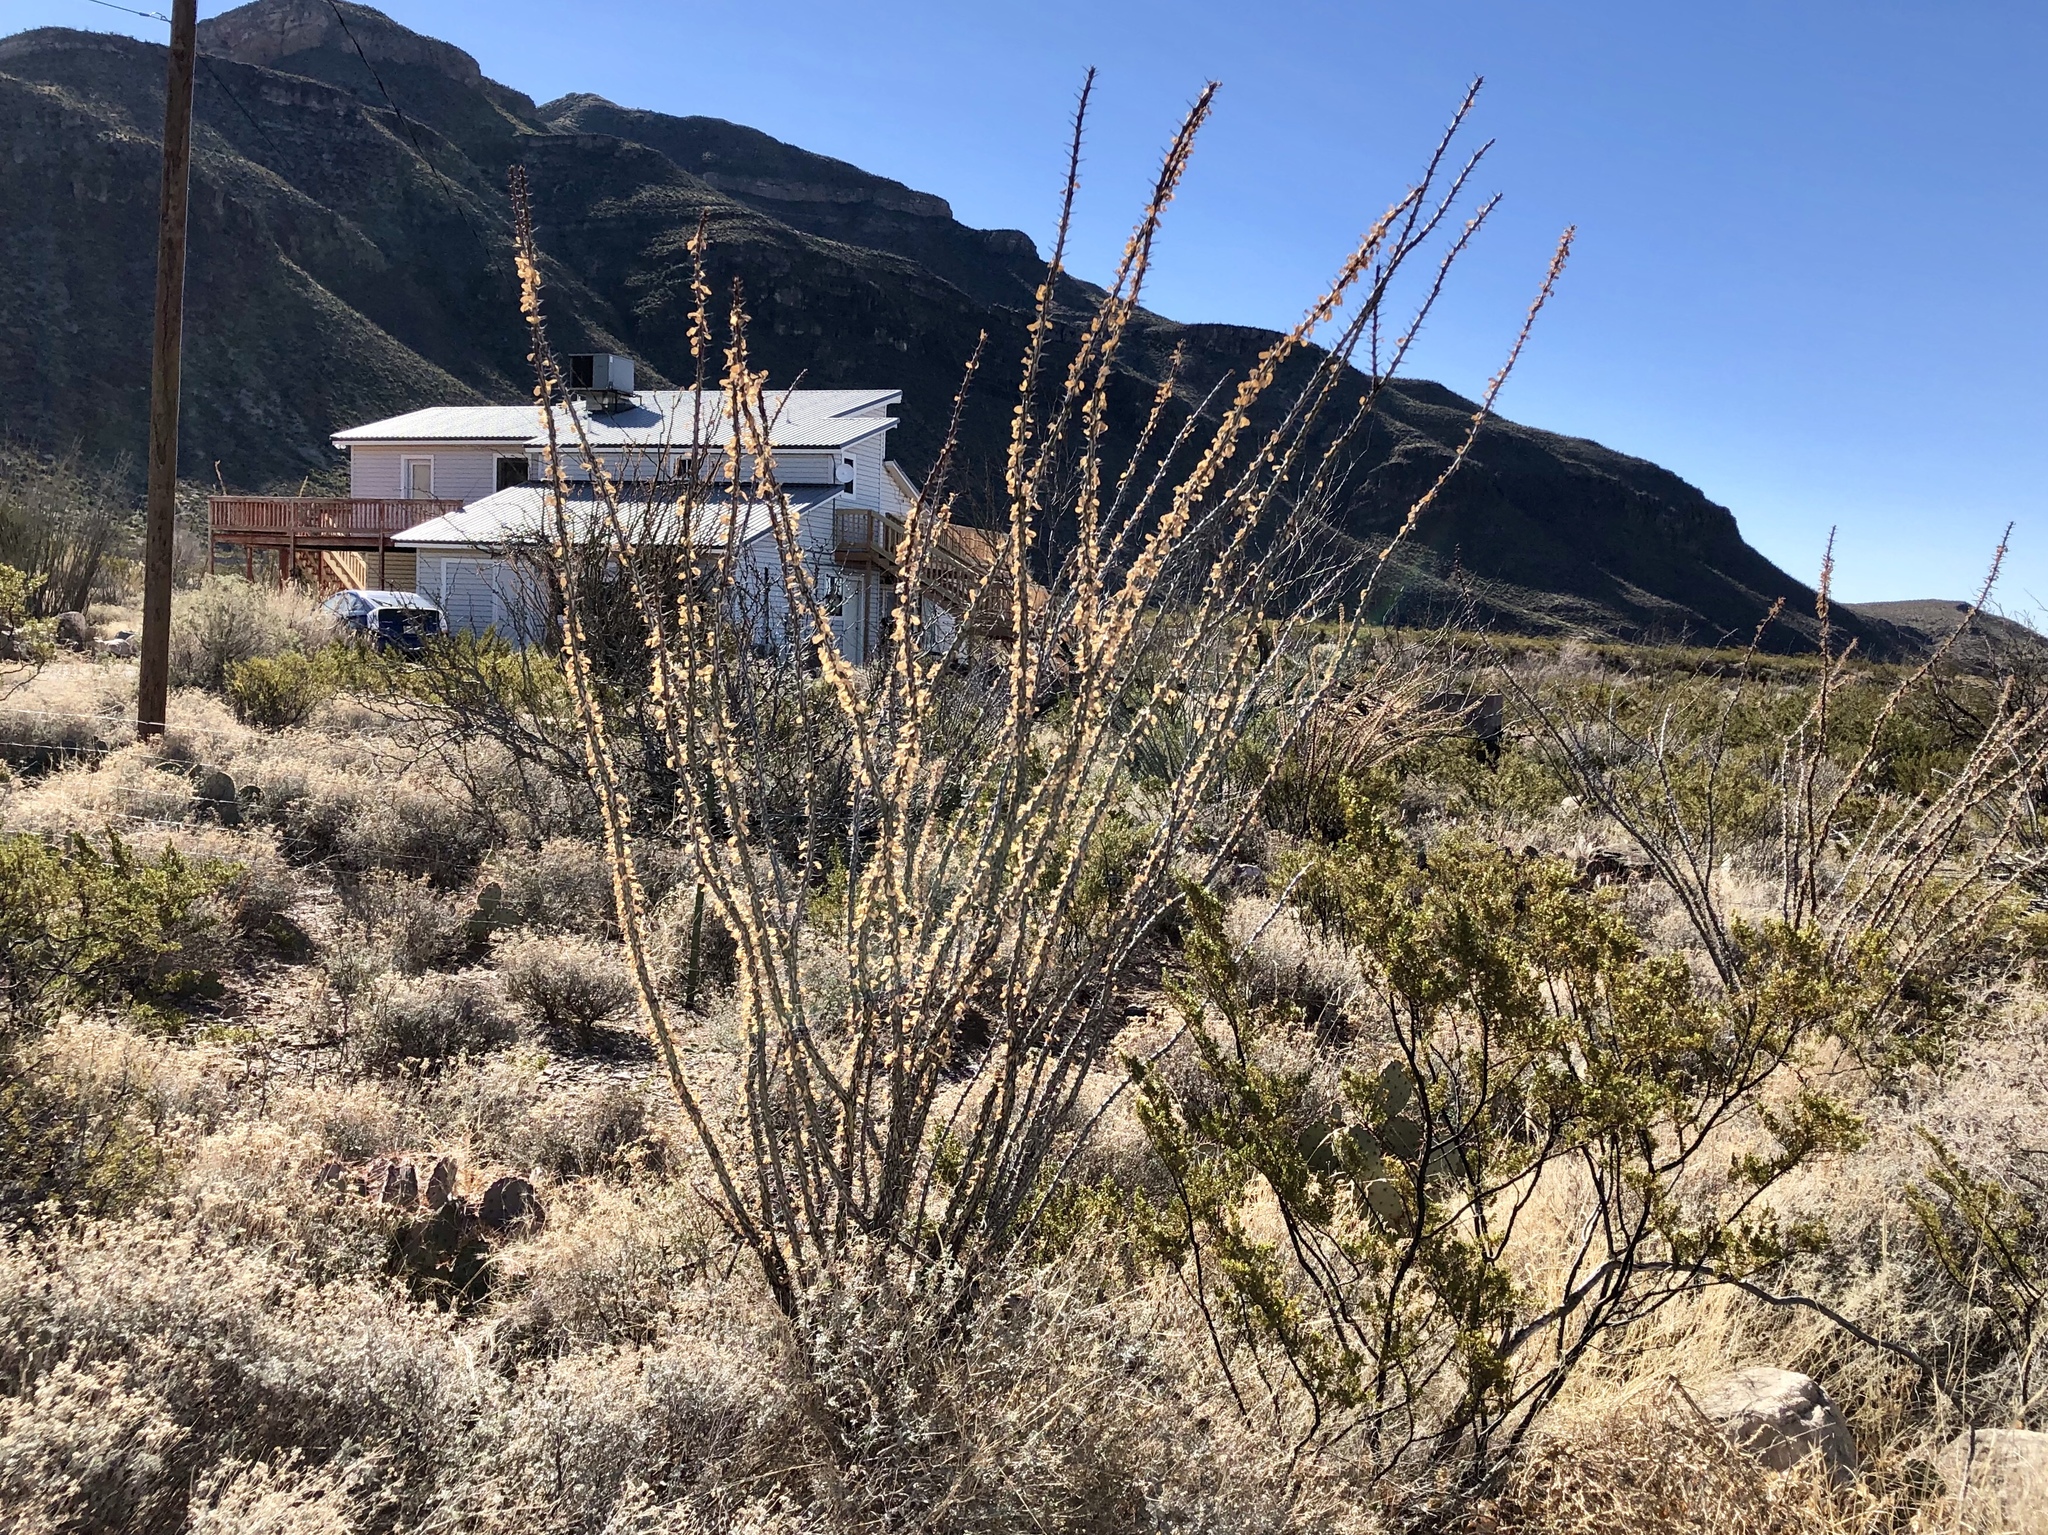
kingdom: Plantae
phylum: Tracheophyta
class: Magnoliopsida
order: Ericales
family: Fouquieriaceae
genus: Fouquieria
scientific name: Fouquieria splendens
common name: Vine-cactus
